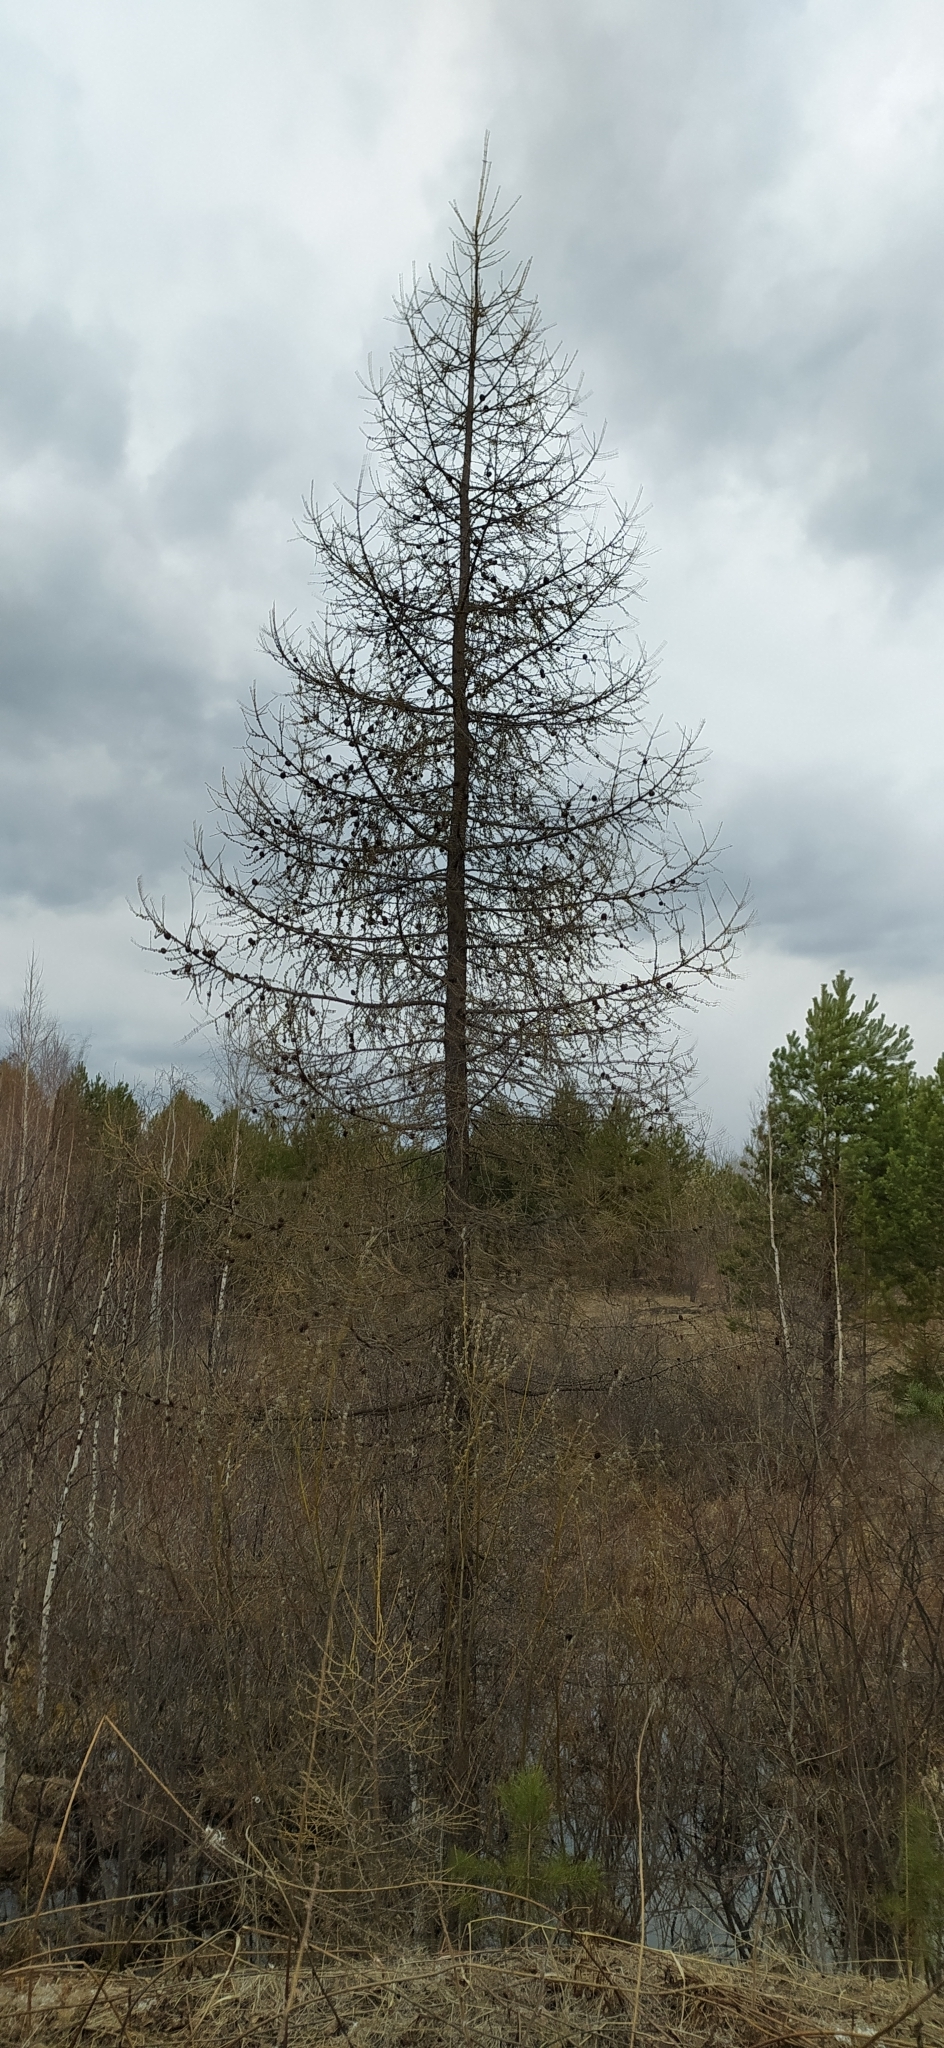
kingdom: Plantae
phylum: Tracheophyta
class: Pinopsida
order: Pinales
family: Pinaceae
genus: Larix
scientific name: Larix sibirica
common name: Siberian larch
